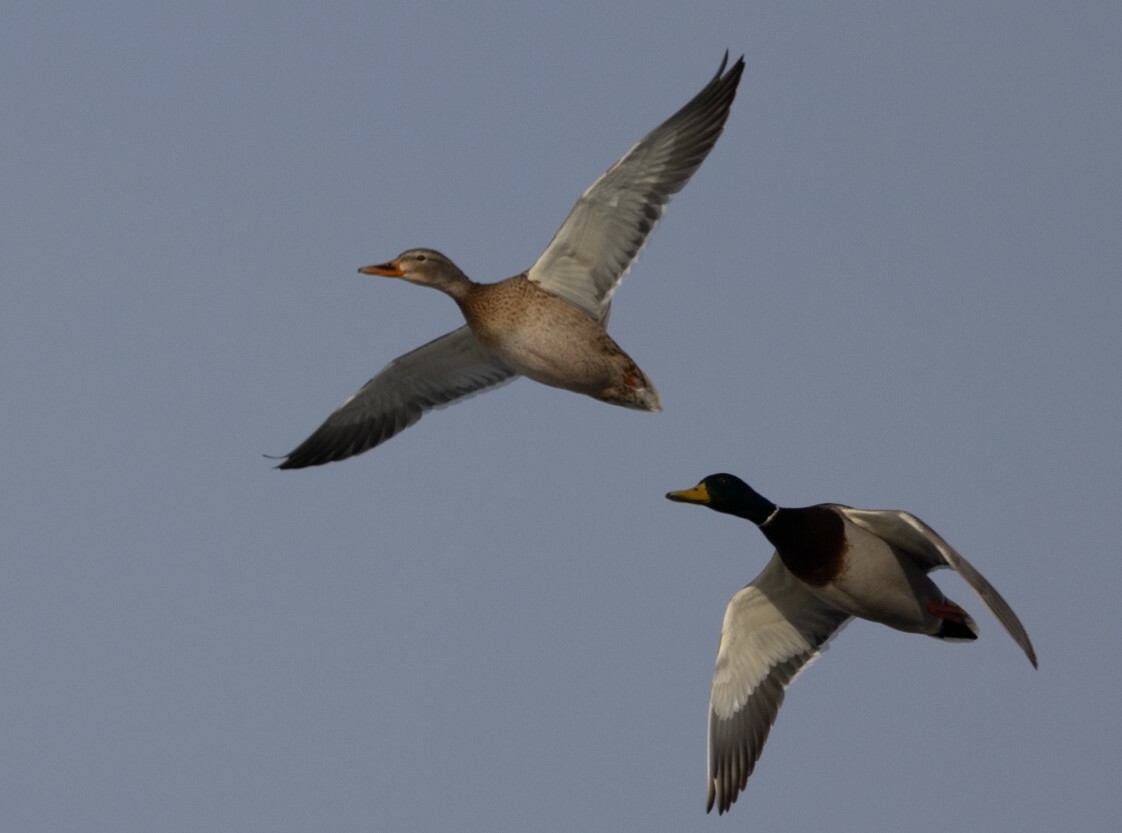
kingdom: Animalia
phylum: Chordata
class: Aves
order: Anseriformes
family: Anatidae
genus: Anas
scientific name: Anas platyrhynchos
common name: Mallard
